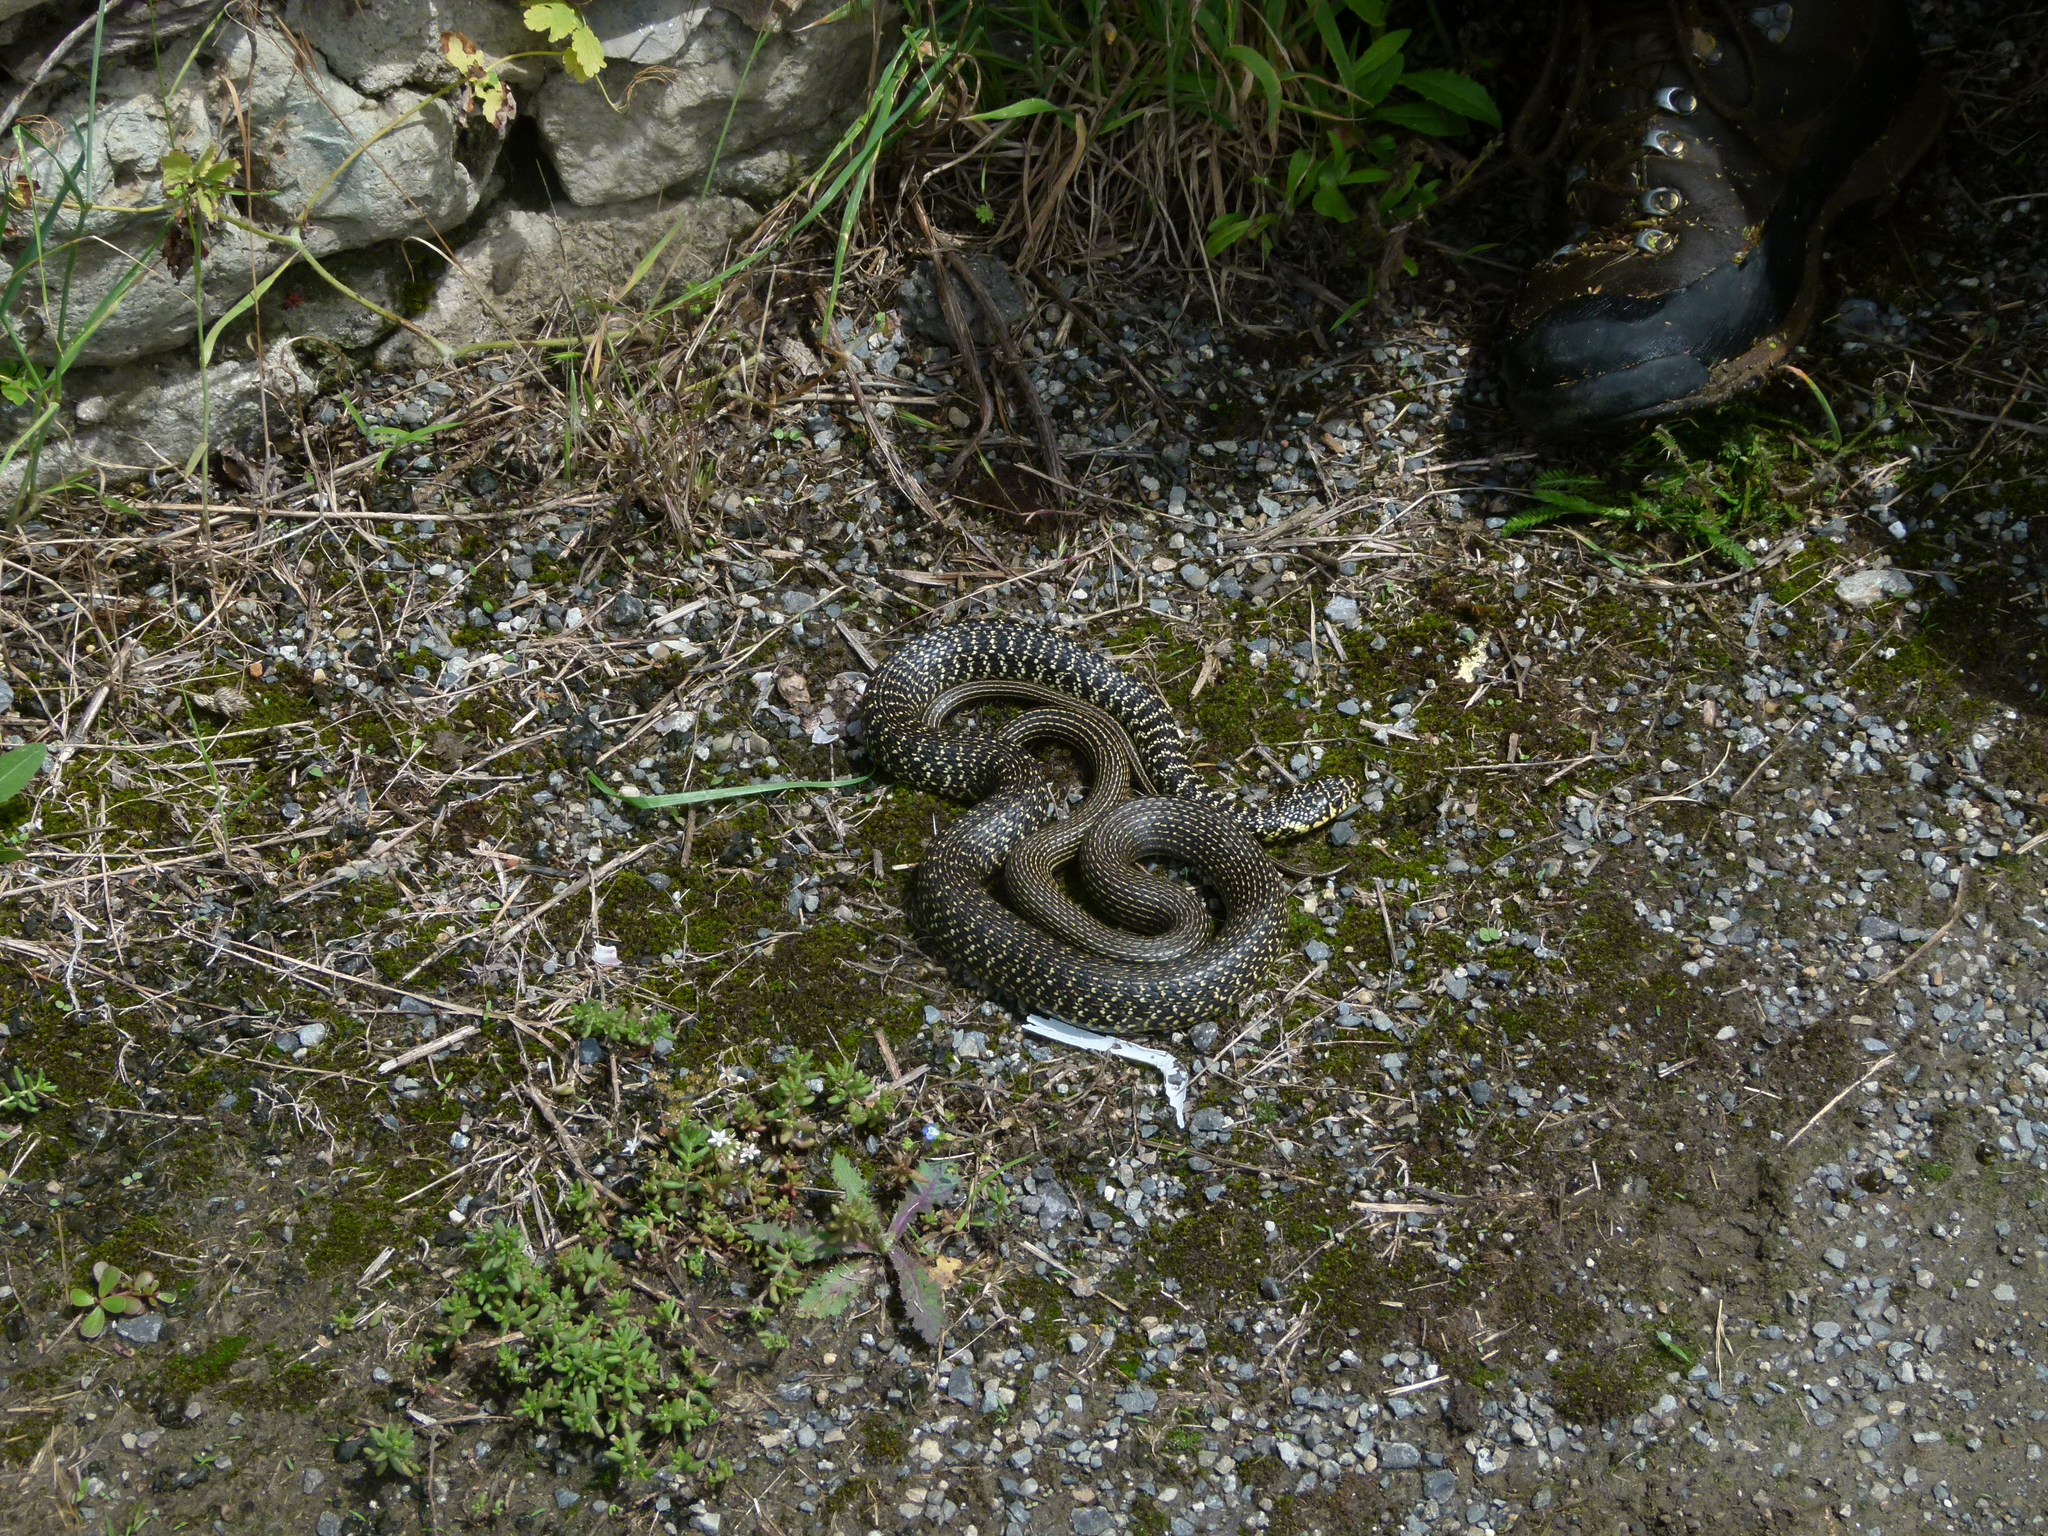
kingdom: Animalia
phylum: Chordata
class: Squamata
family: Colubridae
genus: Hierophis
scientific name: Hierophis viridiflavus
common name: Green whip snake
